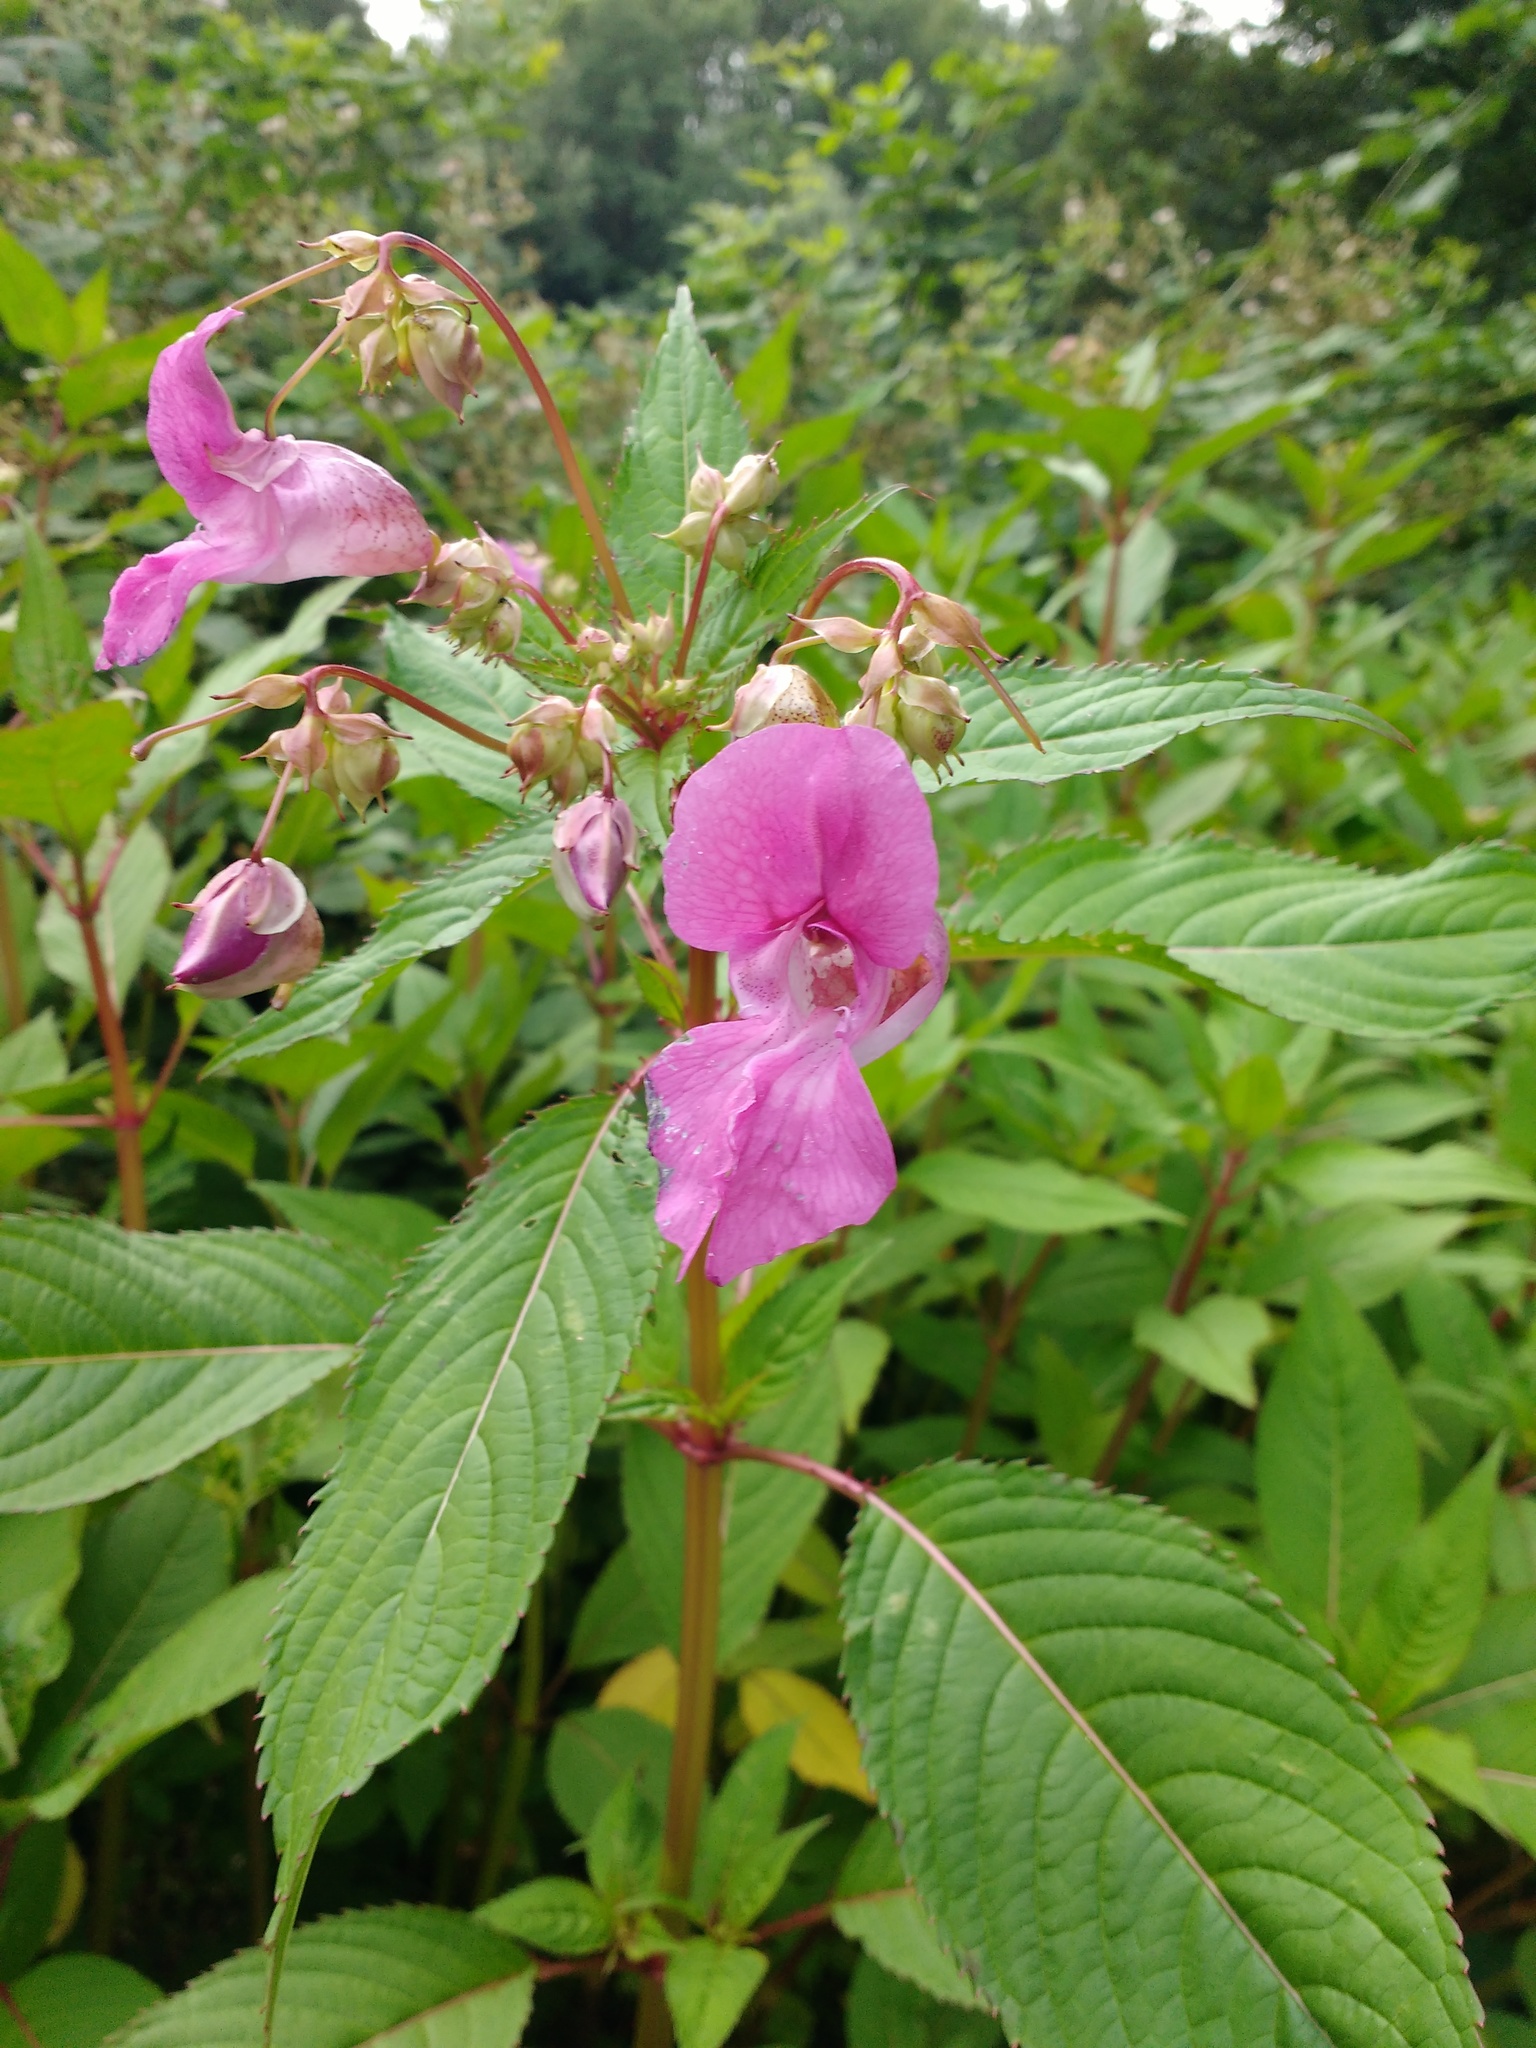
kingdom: Plantae
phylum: Tracheophyta
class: Magnoliopsida
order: Ericales
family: Balsaminaceae
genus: Impatiens
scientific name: Impatiens glandulifera
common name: Himalayan balsam
